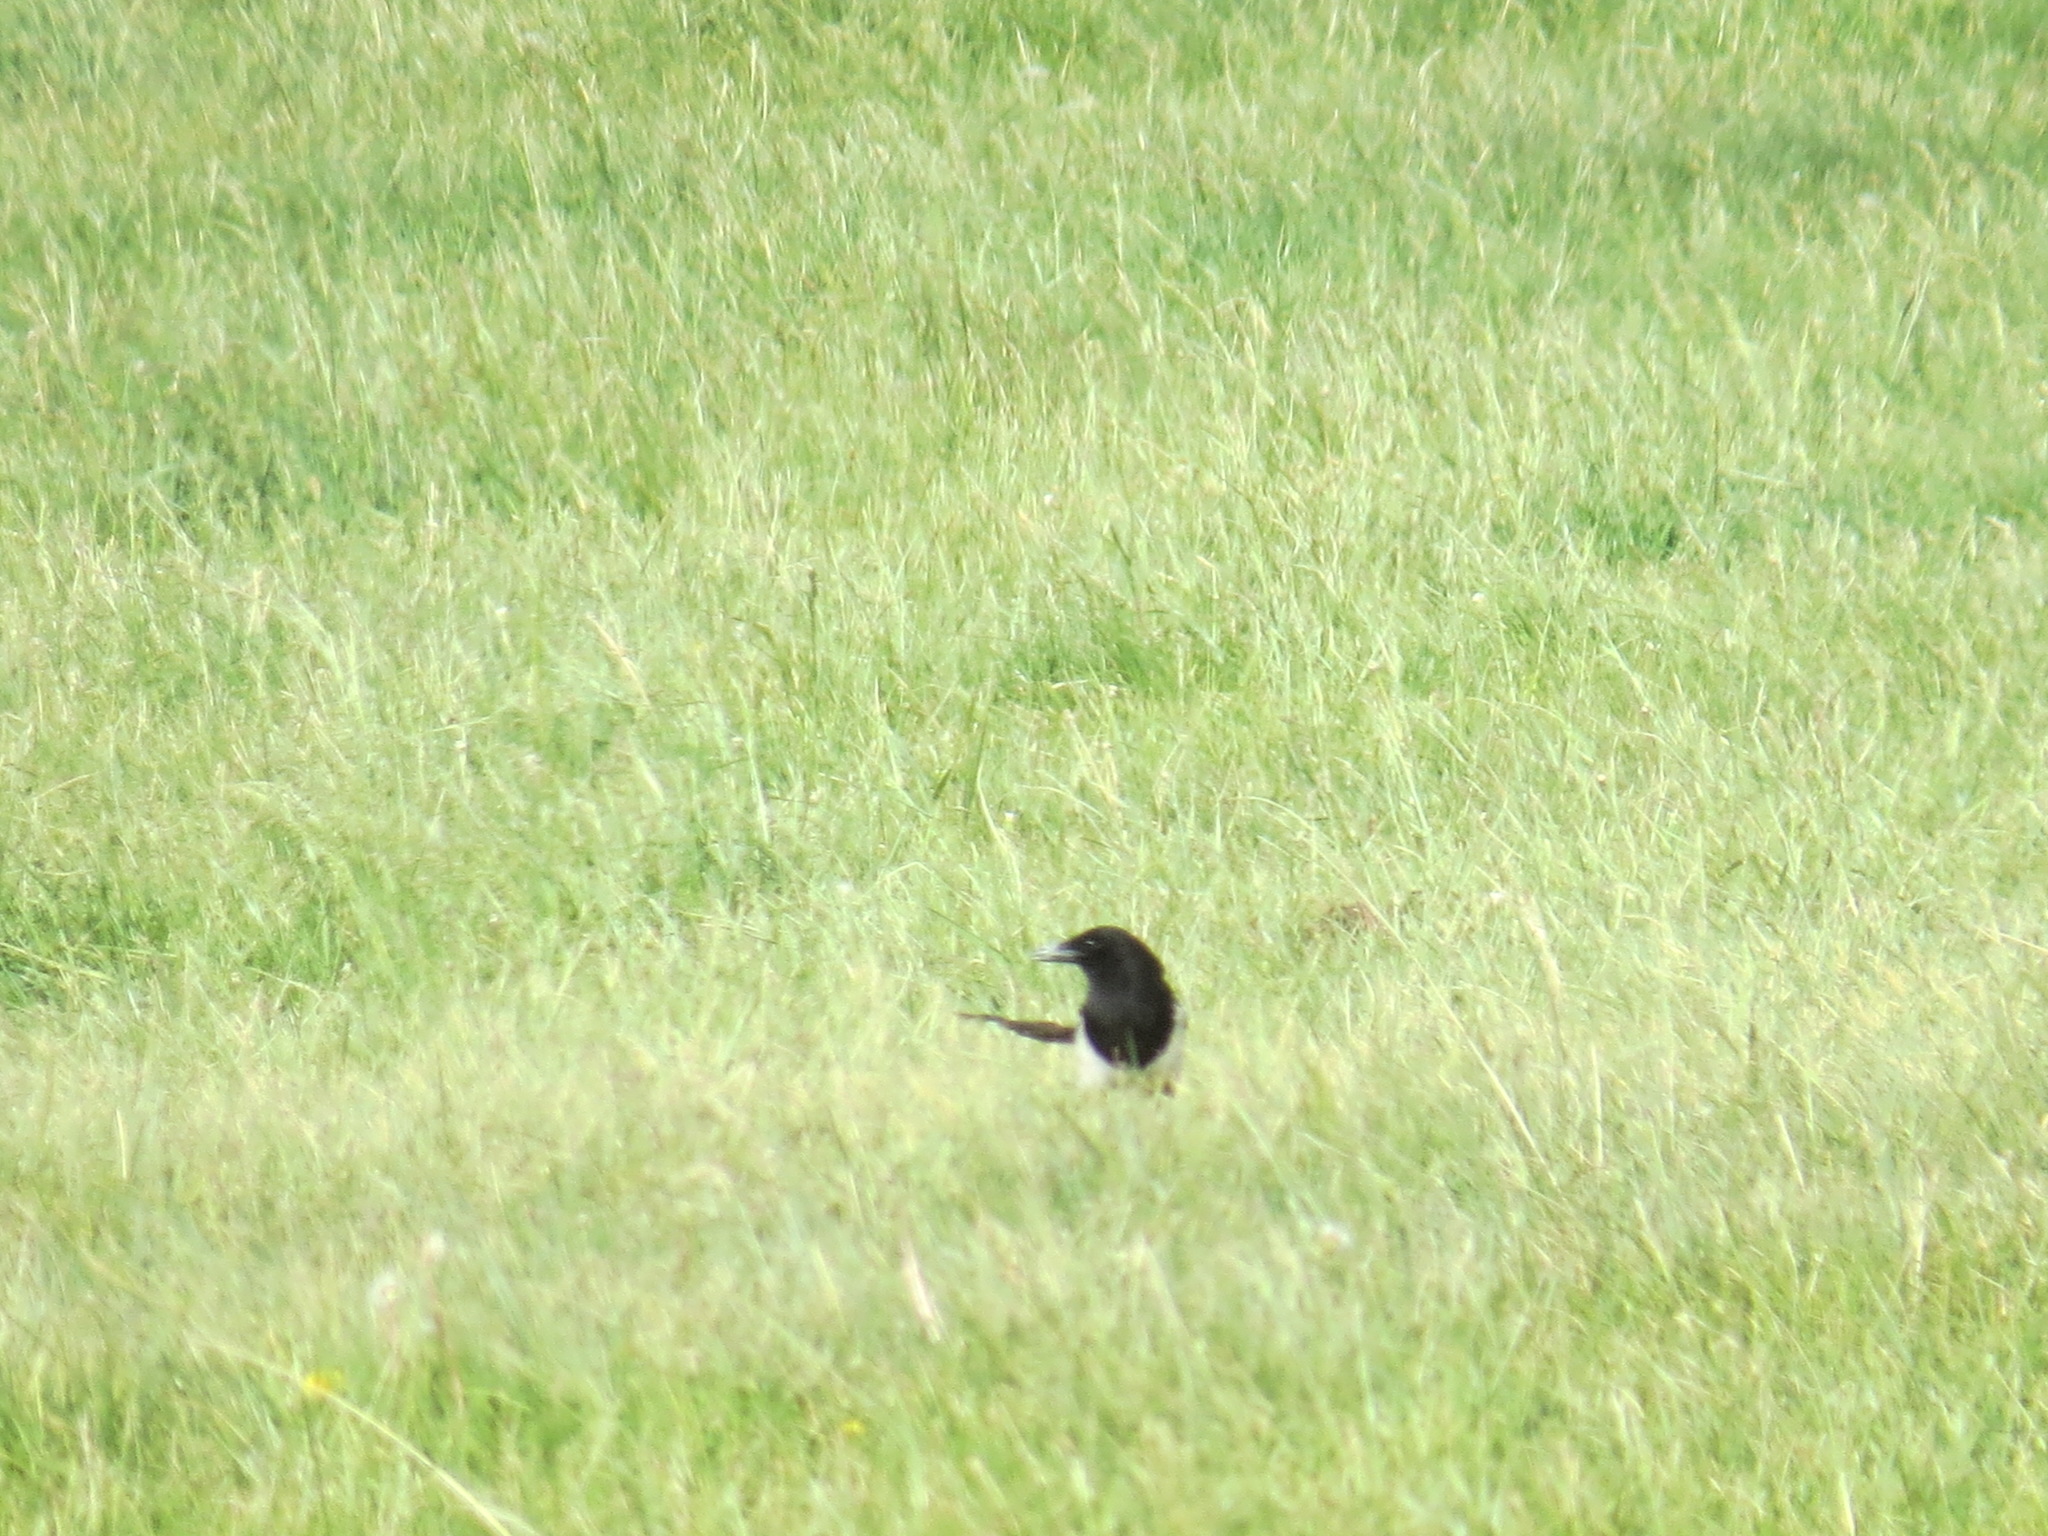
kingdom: Animalia
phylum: Chordata
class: Aves
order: Passeriformes
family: Corvidae
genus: Pica
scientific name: Pica hudsonia
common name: Black-billed magpie
